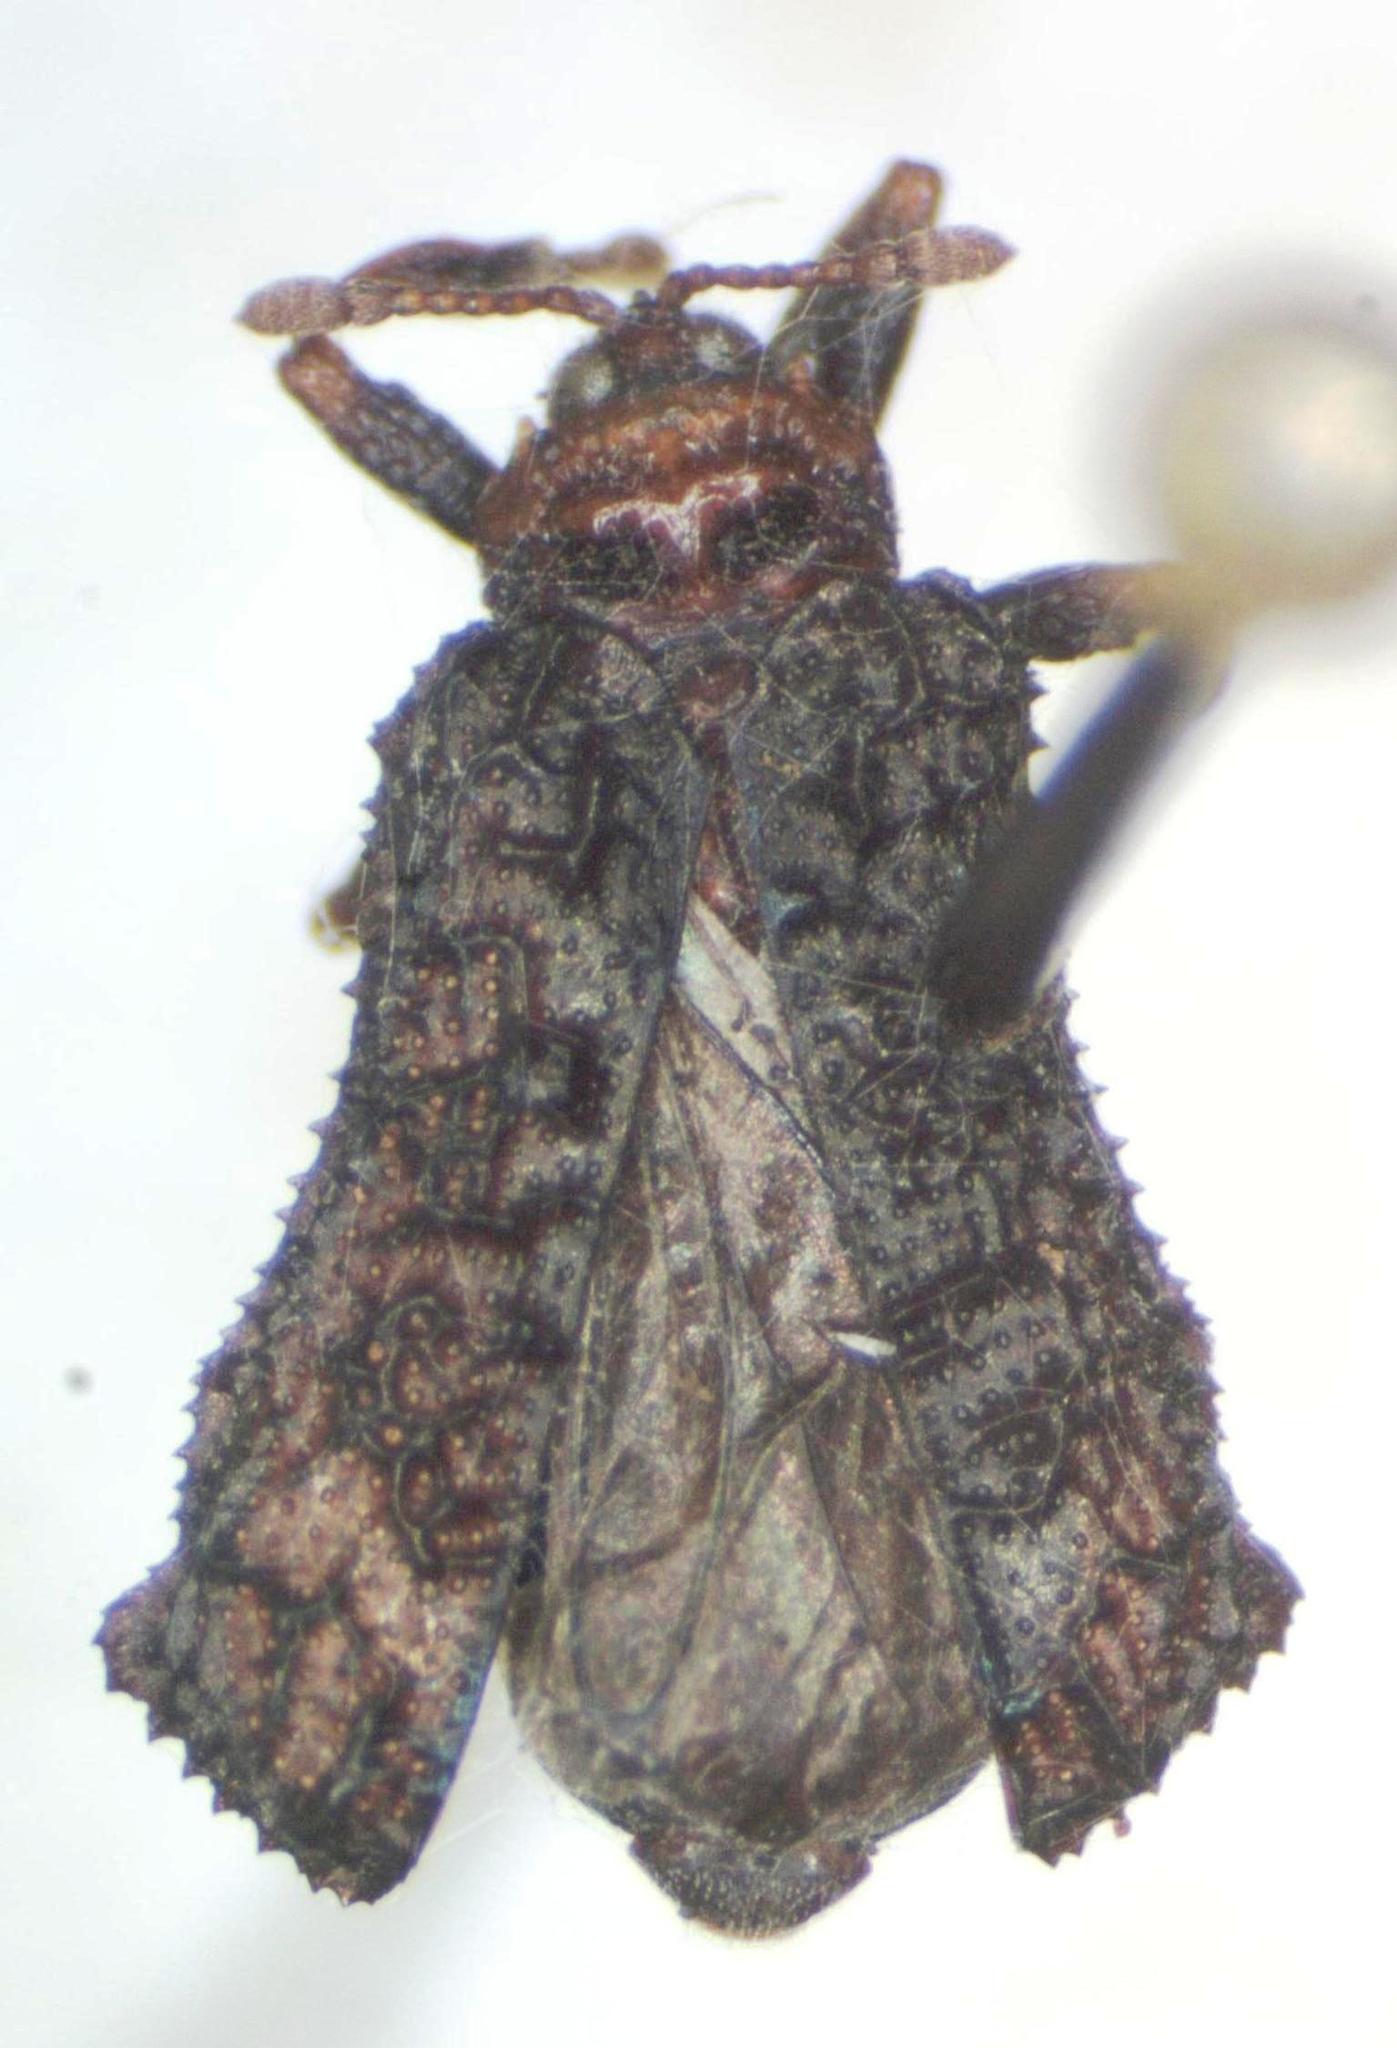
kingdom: Animalia
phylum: Arthropoda
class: Insecta
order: Coleoptera
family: Chrysomelidae
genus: Octotoma
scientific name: Octotoma championi
